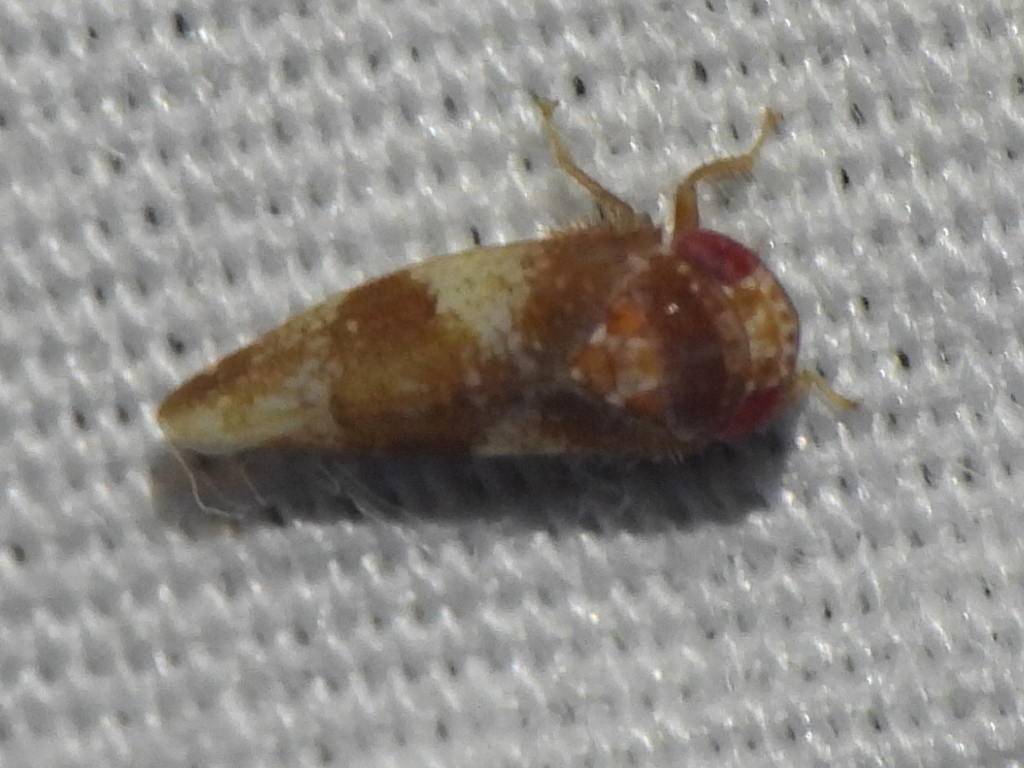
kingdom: Animalia
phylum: Arthropoda
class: Insecta
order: Hemiptera
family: Cicadellidae
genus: Norvellina
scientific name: Norvellina helenae
